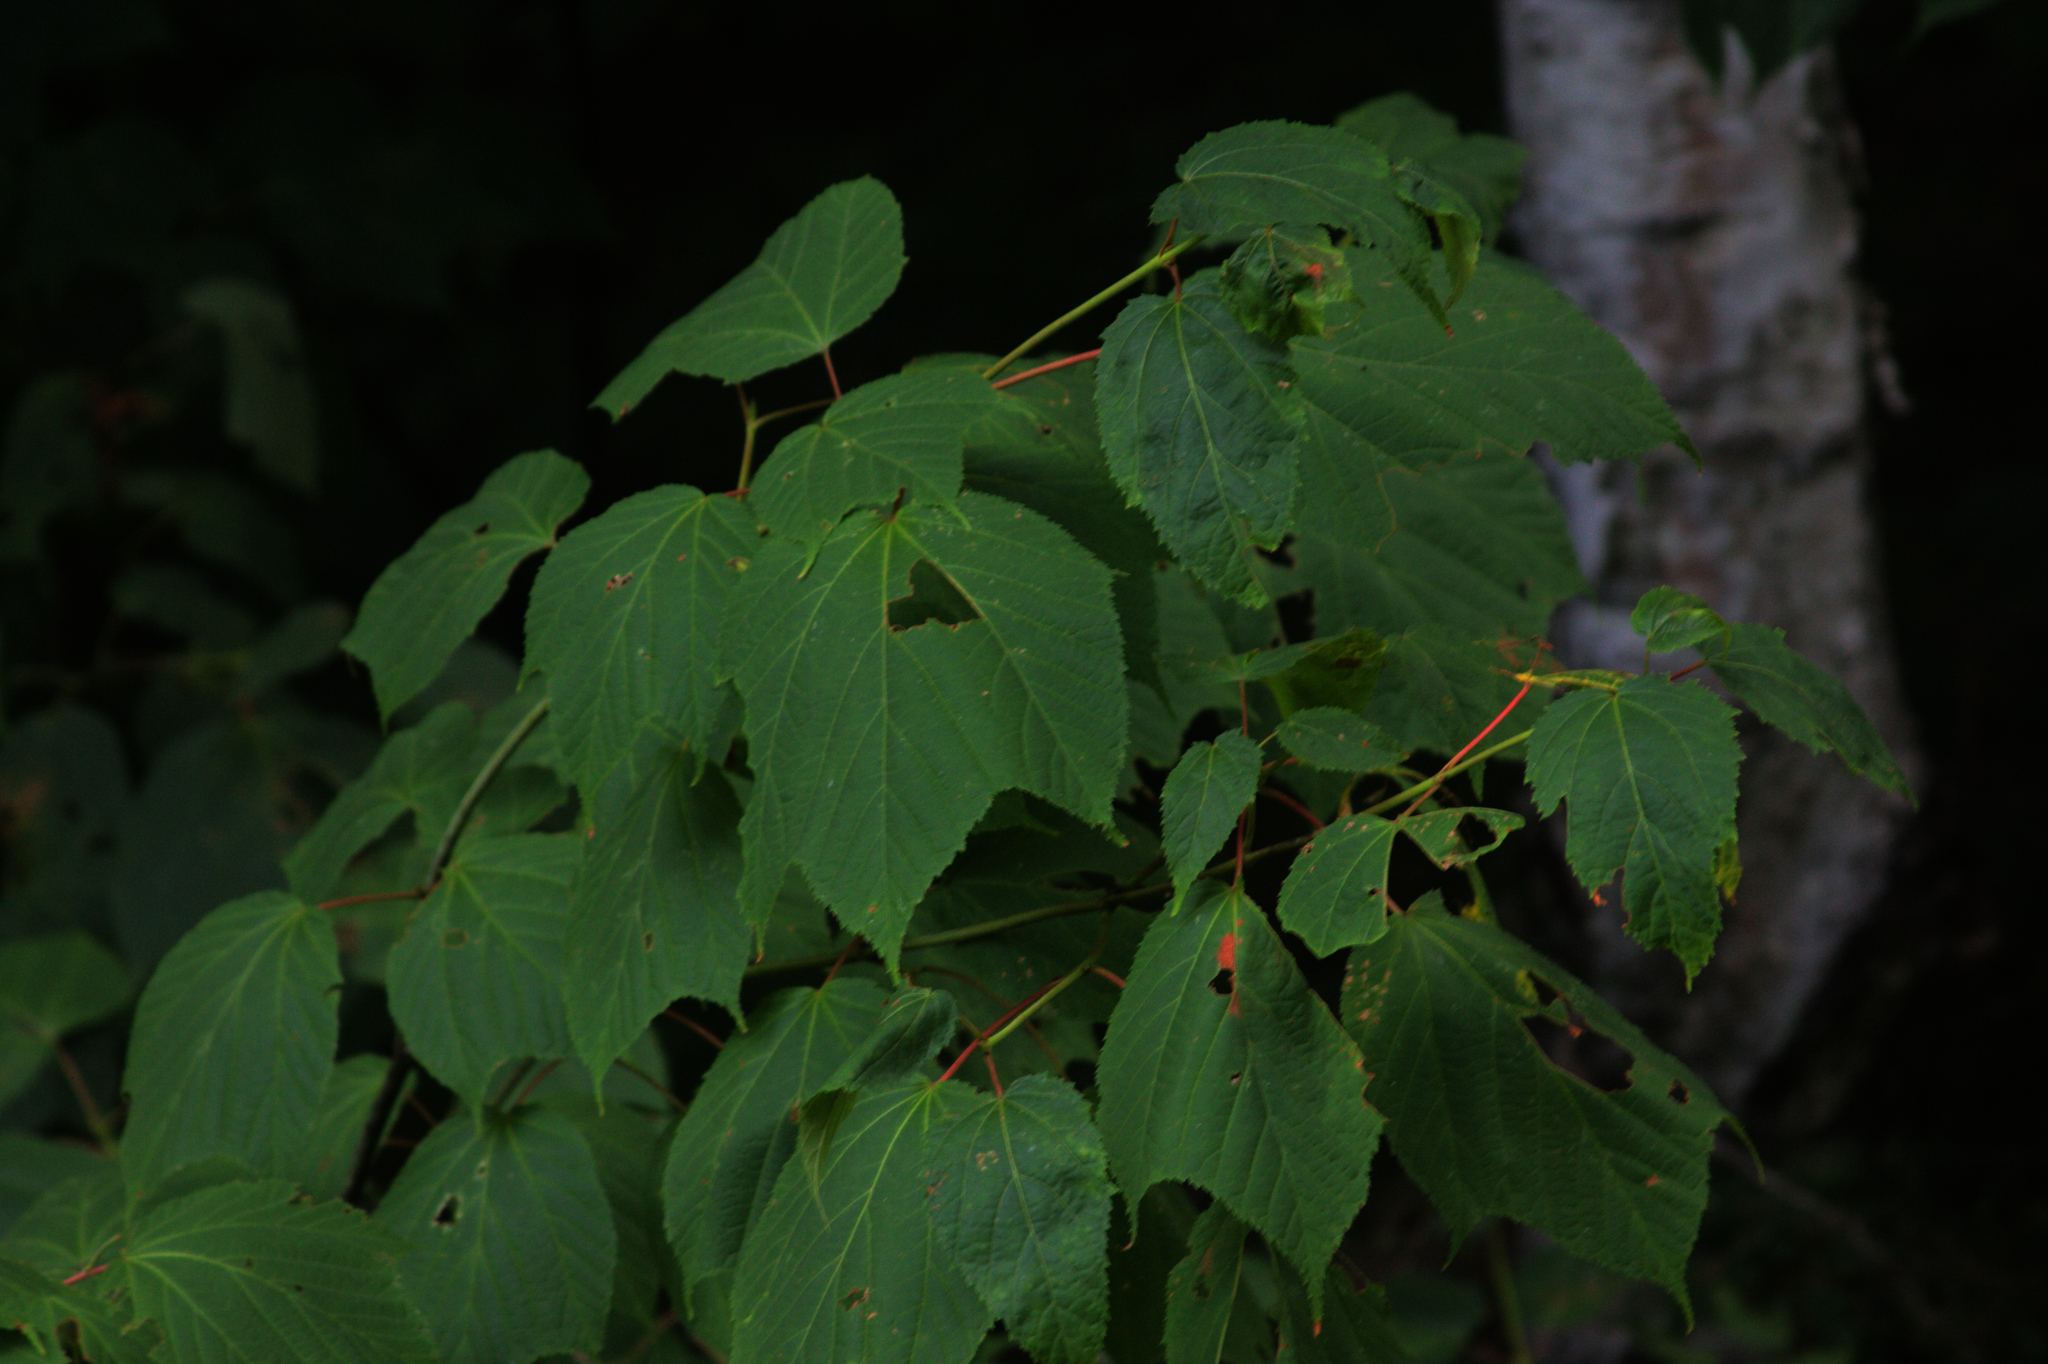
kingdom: Plantae
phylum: Tracheophyta
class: Magnoliopsida
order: Sapindales
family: Sapindaceae
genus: Acer
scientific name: Acer pensylvanicum
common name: Moosewood
